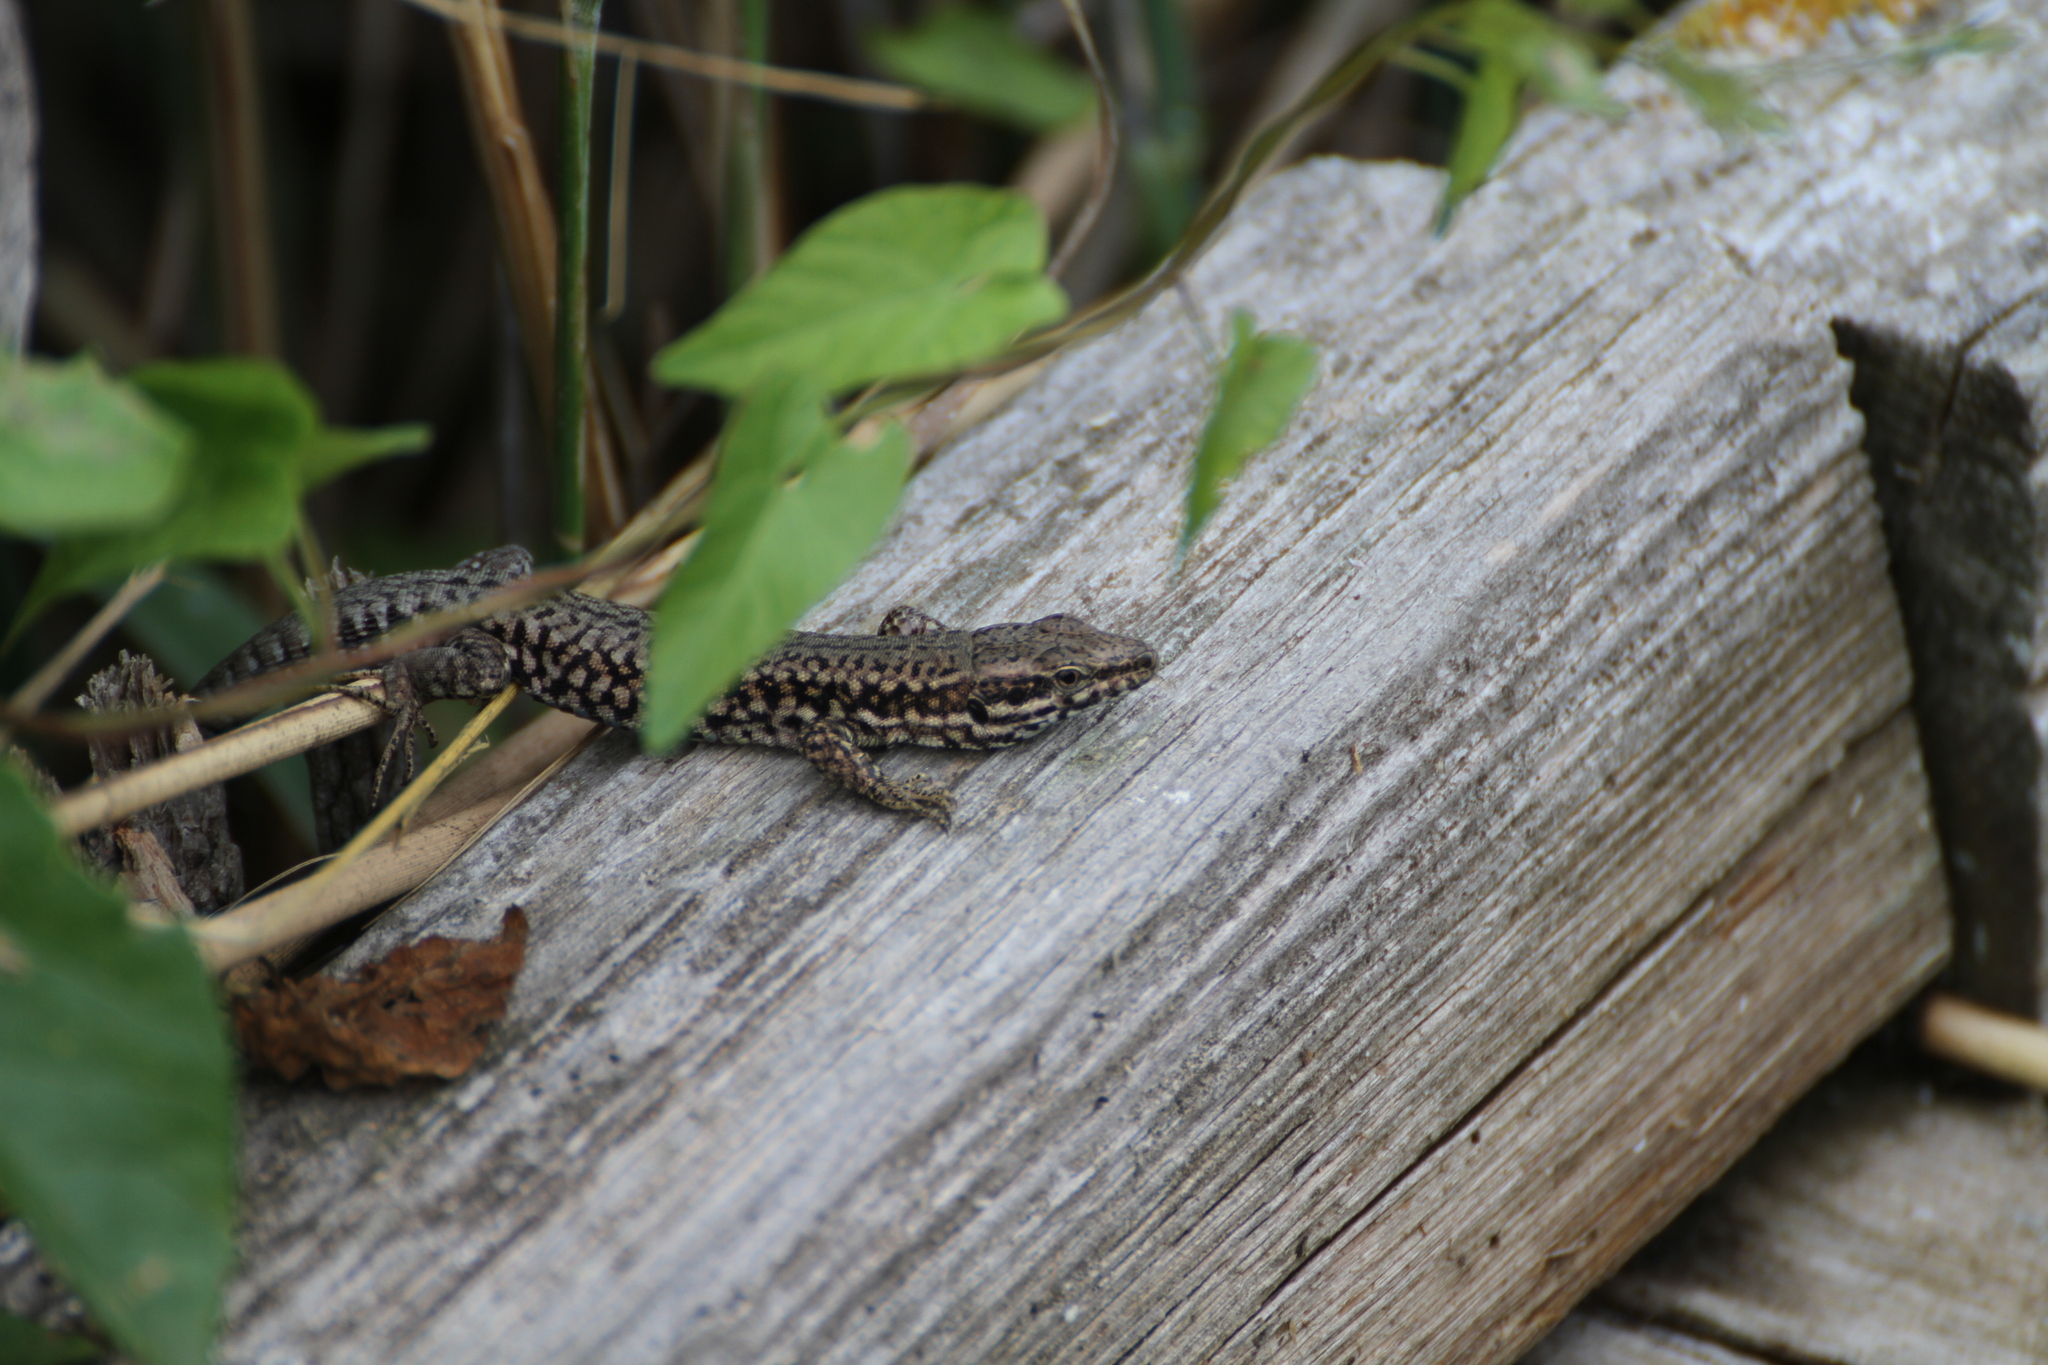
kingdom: Animalia
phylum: Chordata
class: Squamata
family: Lacertidae
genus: Podarcis
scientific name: Podarcis muralis
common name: Common wall lizard
